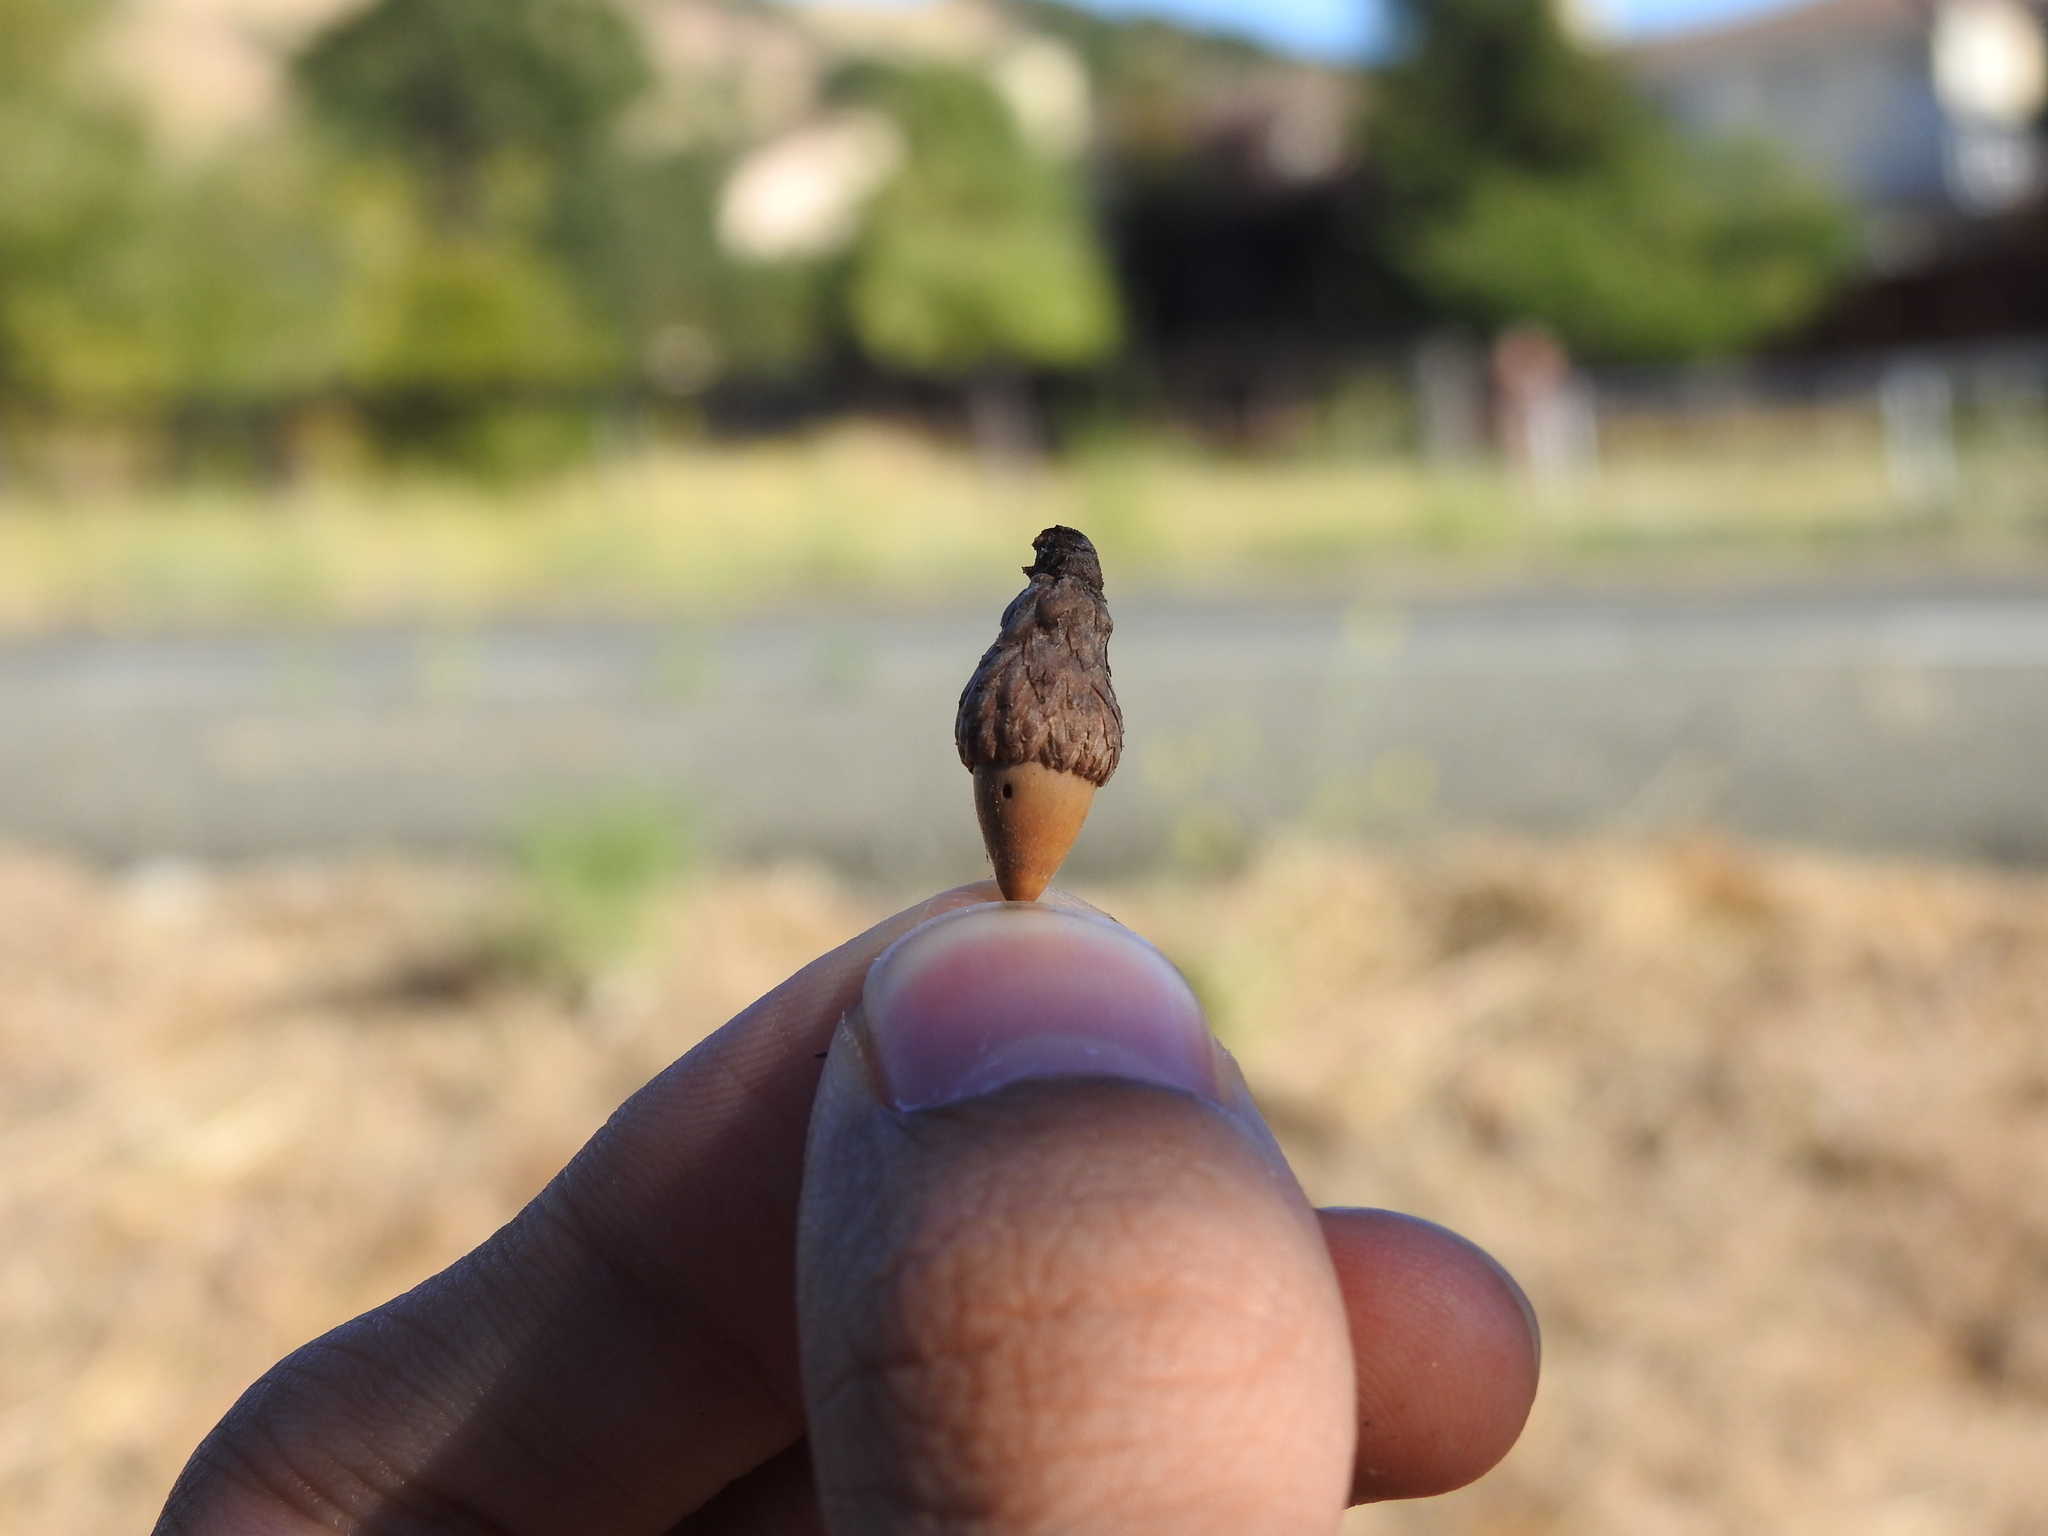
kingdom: Animalia
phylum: Arthropoda
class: Insecta
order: Coleoptera
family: Curculionidae
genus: Curculio
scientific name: Curculio occidentis
